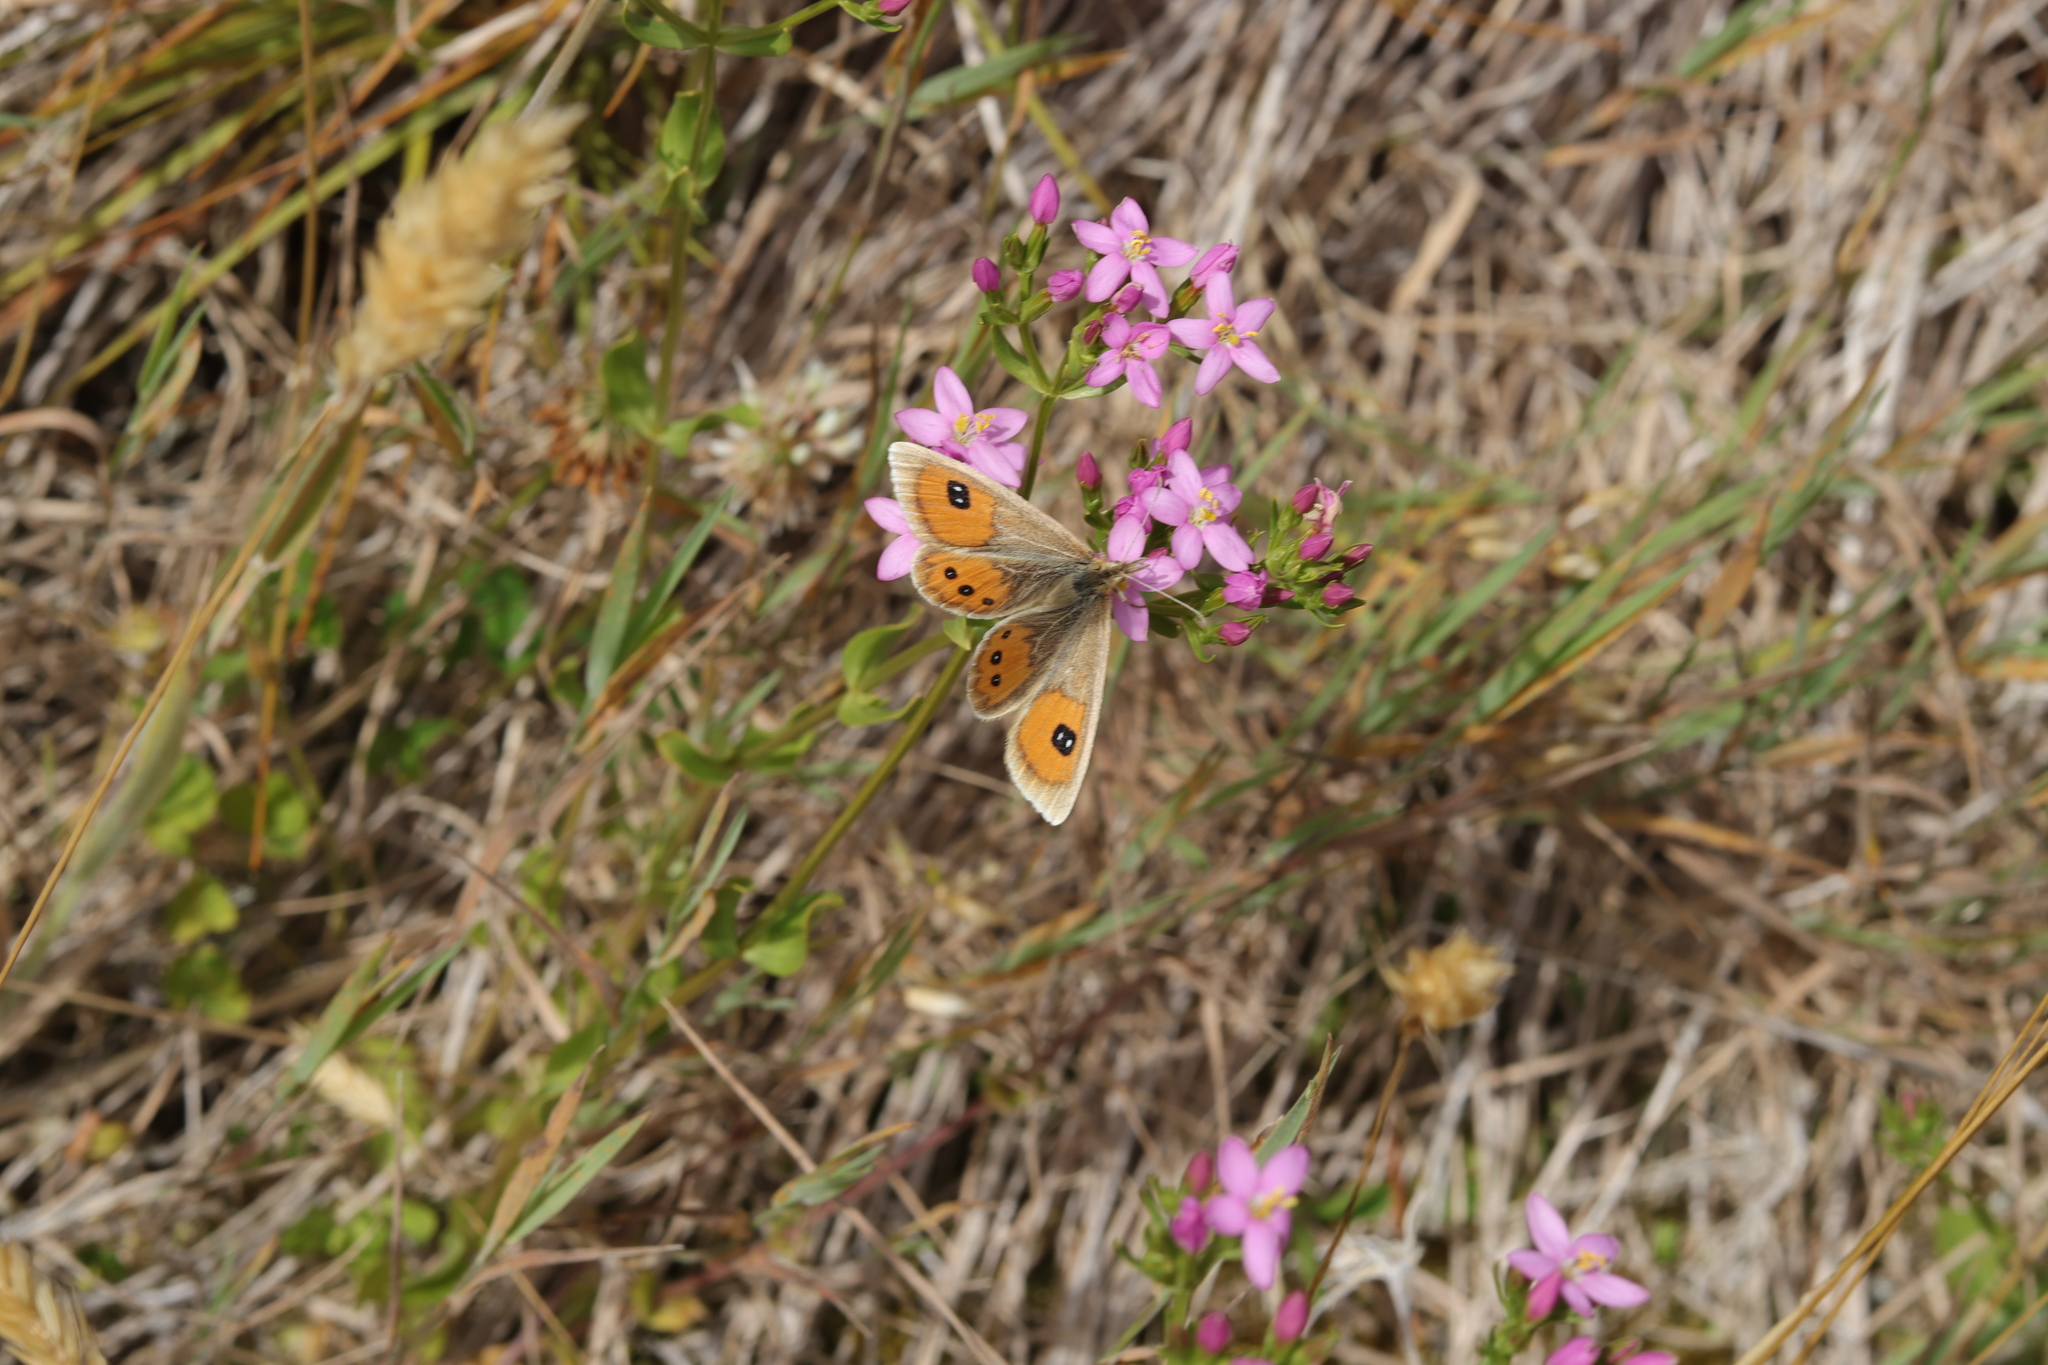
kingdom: Animalia
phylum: Arthropoda
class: Insecta
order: Lepidoptera
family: Nymphalidae
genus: Argyrophenga
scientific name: Argyrophenga antipodum
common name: Common tussock butterfly
